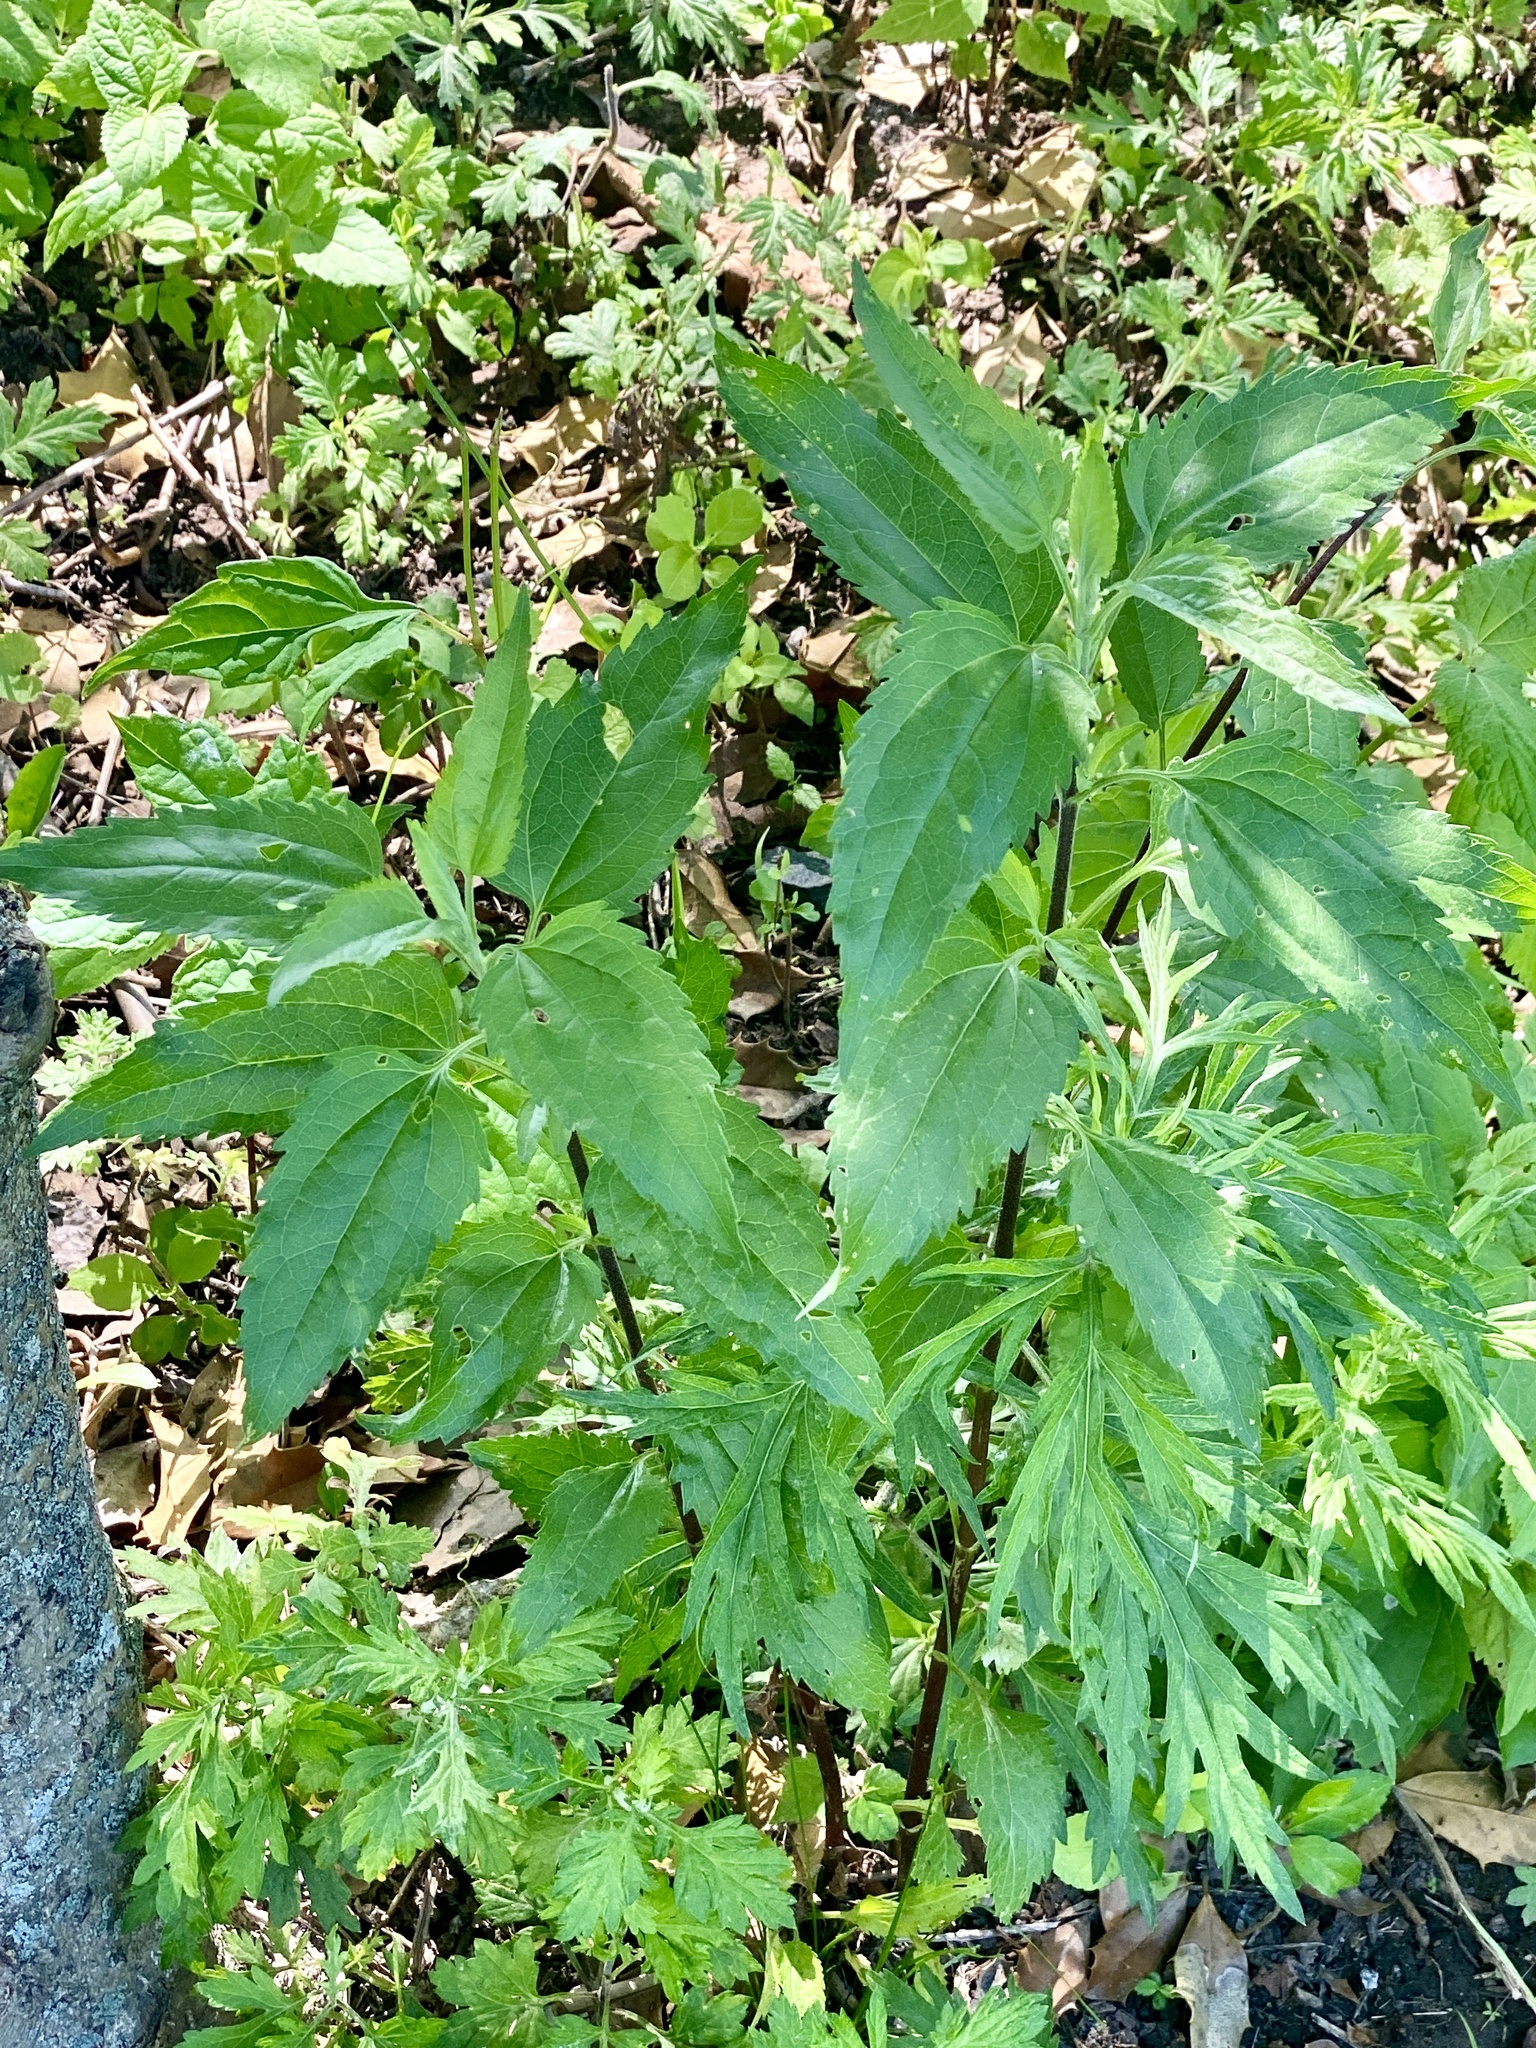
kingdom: Plantae
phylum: Tracheophyta
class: Magnoliopsida
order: Asterales
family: Asteraceae
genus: Eupatorium
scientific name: Eupatorium serotinum
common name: Late boneset
